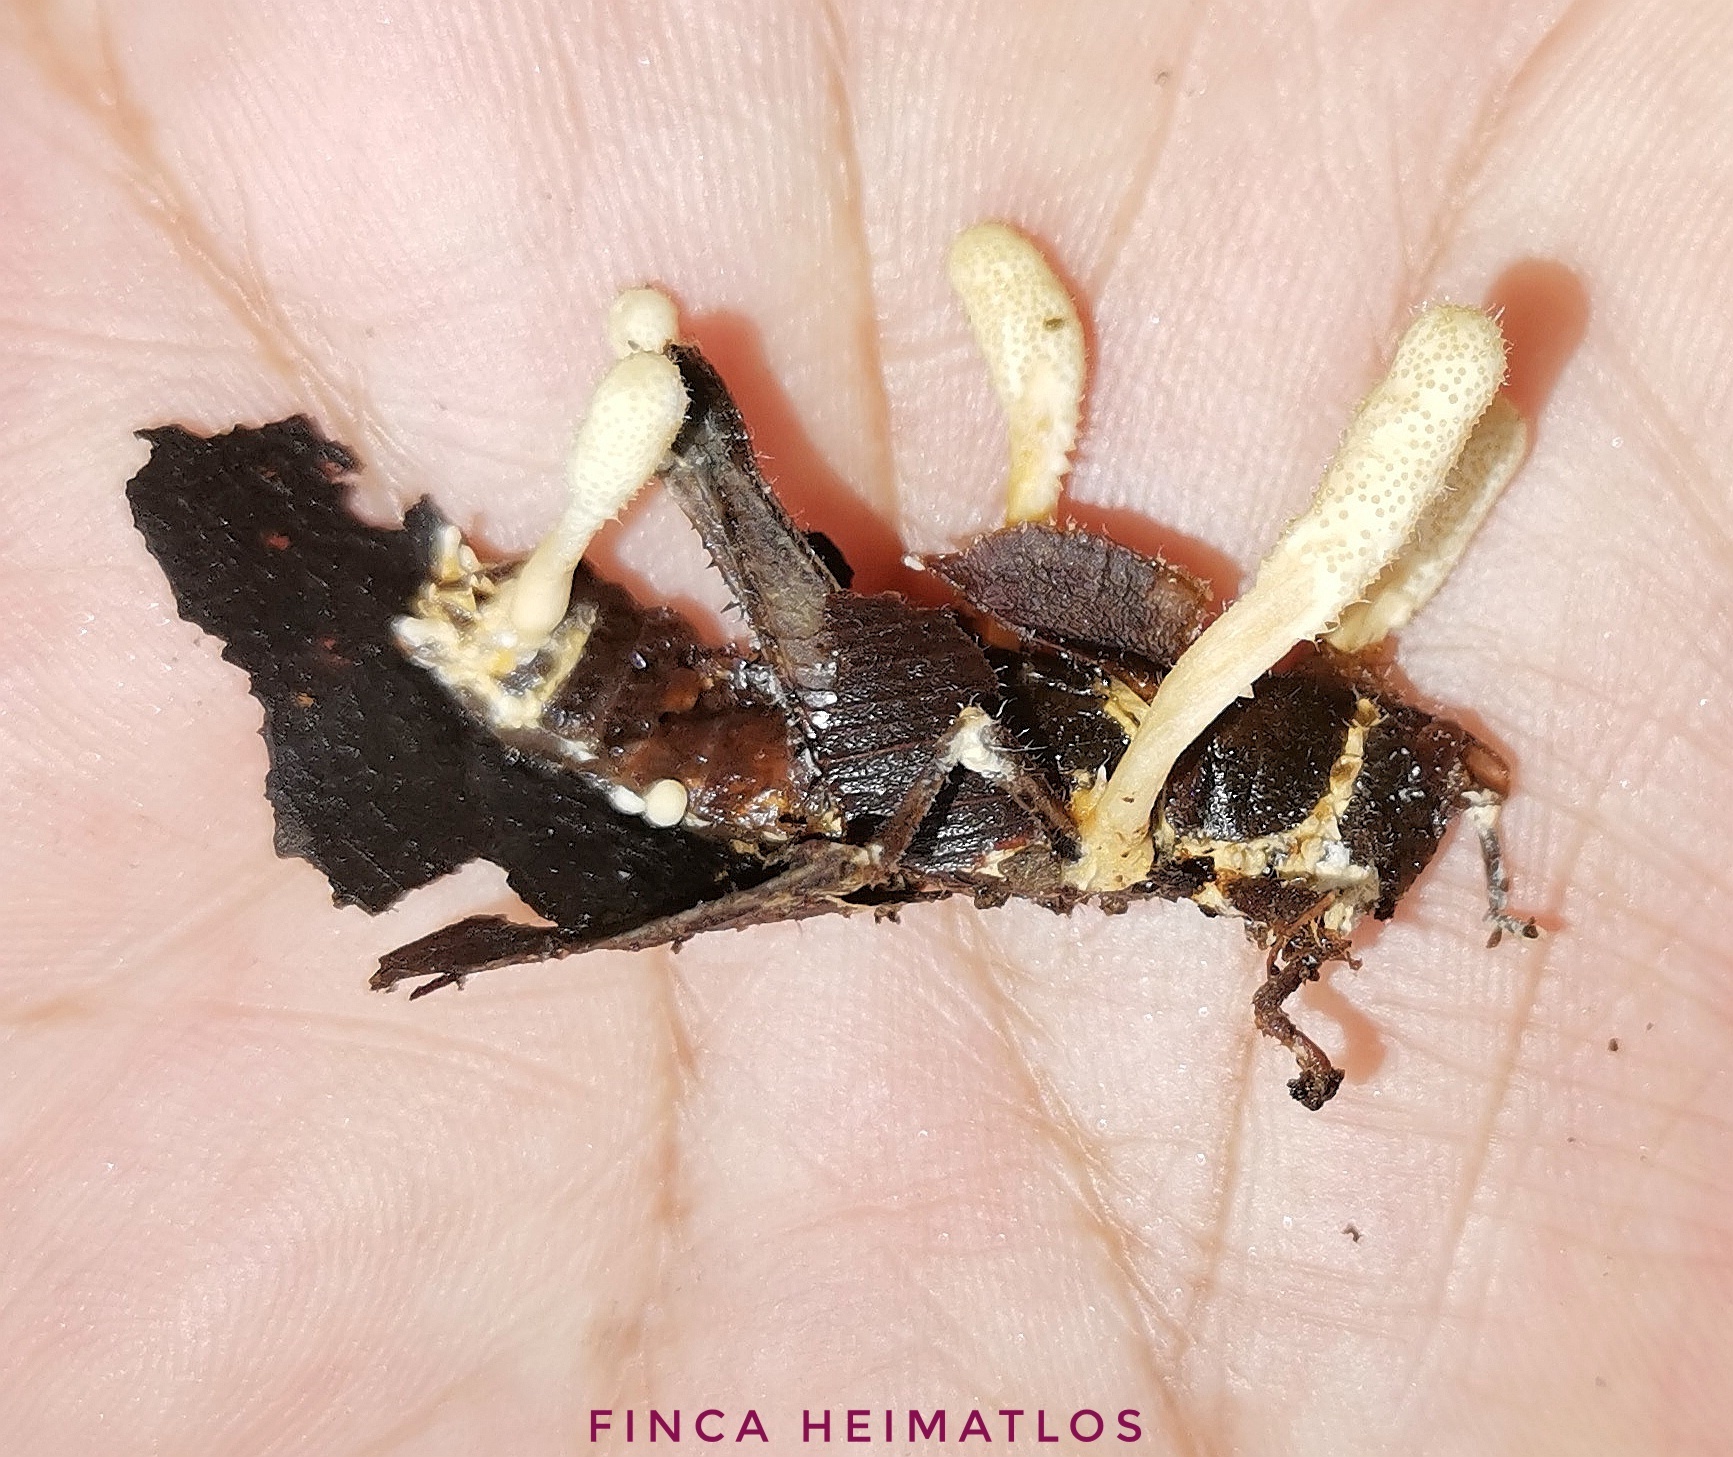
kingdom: Fungi
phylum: Ascomycota
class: Sordariomycetes
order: Hypocreales
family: Cordycipitaceae
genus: Beauveria
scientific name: Beauveria locustiphila
